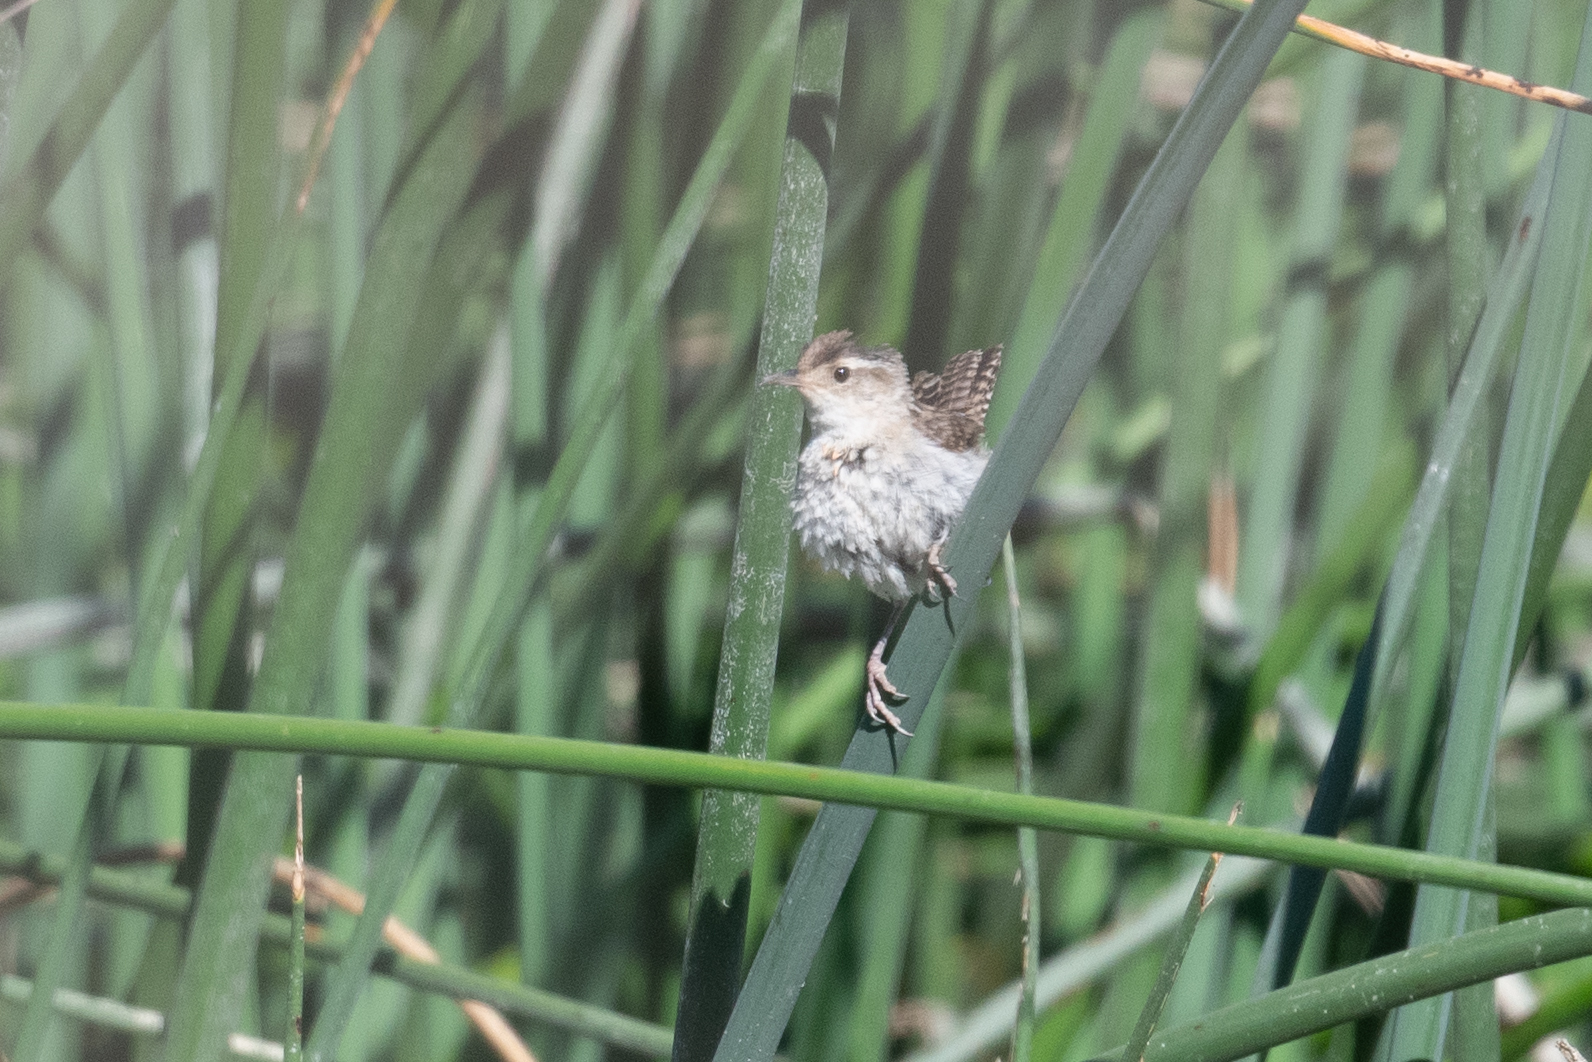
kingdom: Animalia
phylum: Chordata
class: Aves
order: Passeriformes
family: Troglodytidae
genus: Cistothorus
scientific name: Cistothorus palustris
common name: Marsh wren
